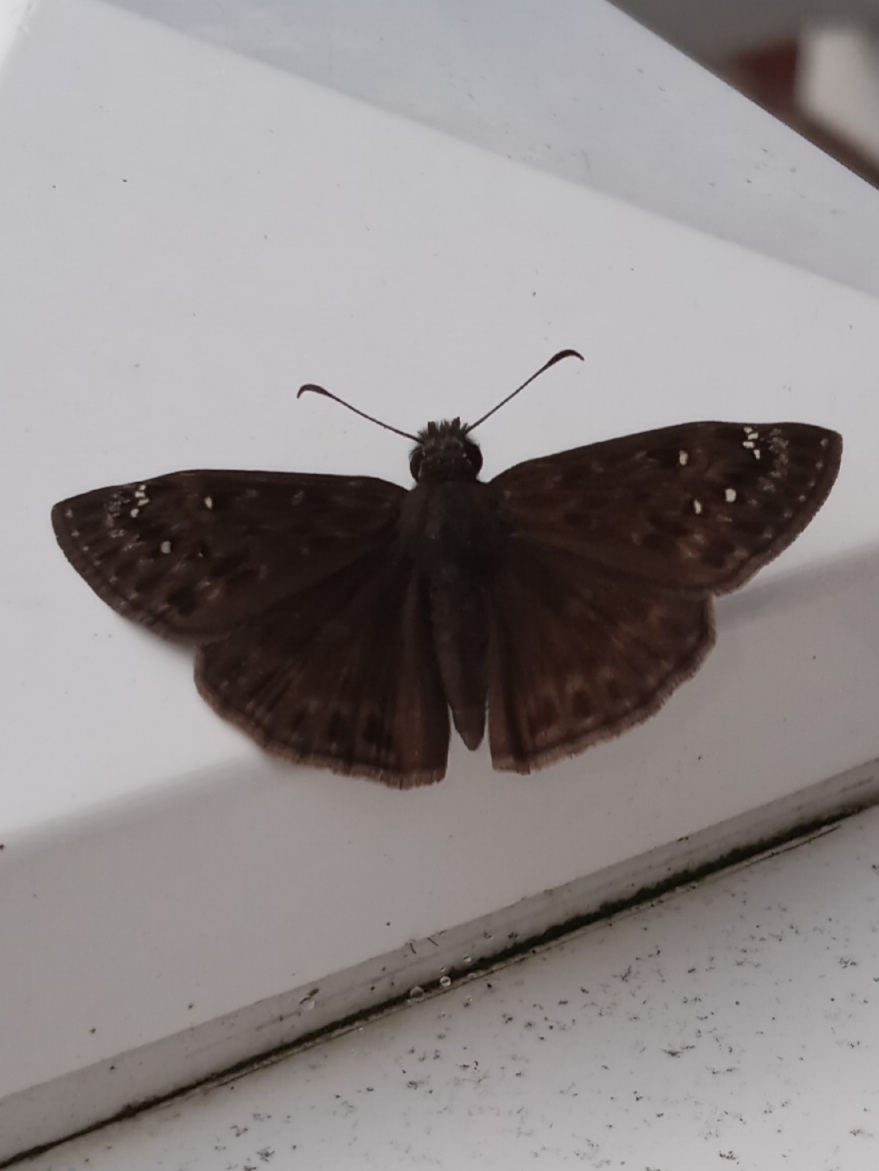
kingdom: Animalia
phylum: Arthropoda
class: Insecta
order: Lepidoptera
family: Hesperiidae
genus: Erynnis
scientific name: Erynnis horatius
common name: Horace's duskywing
